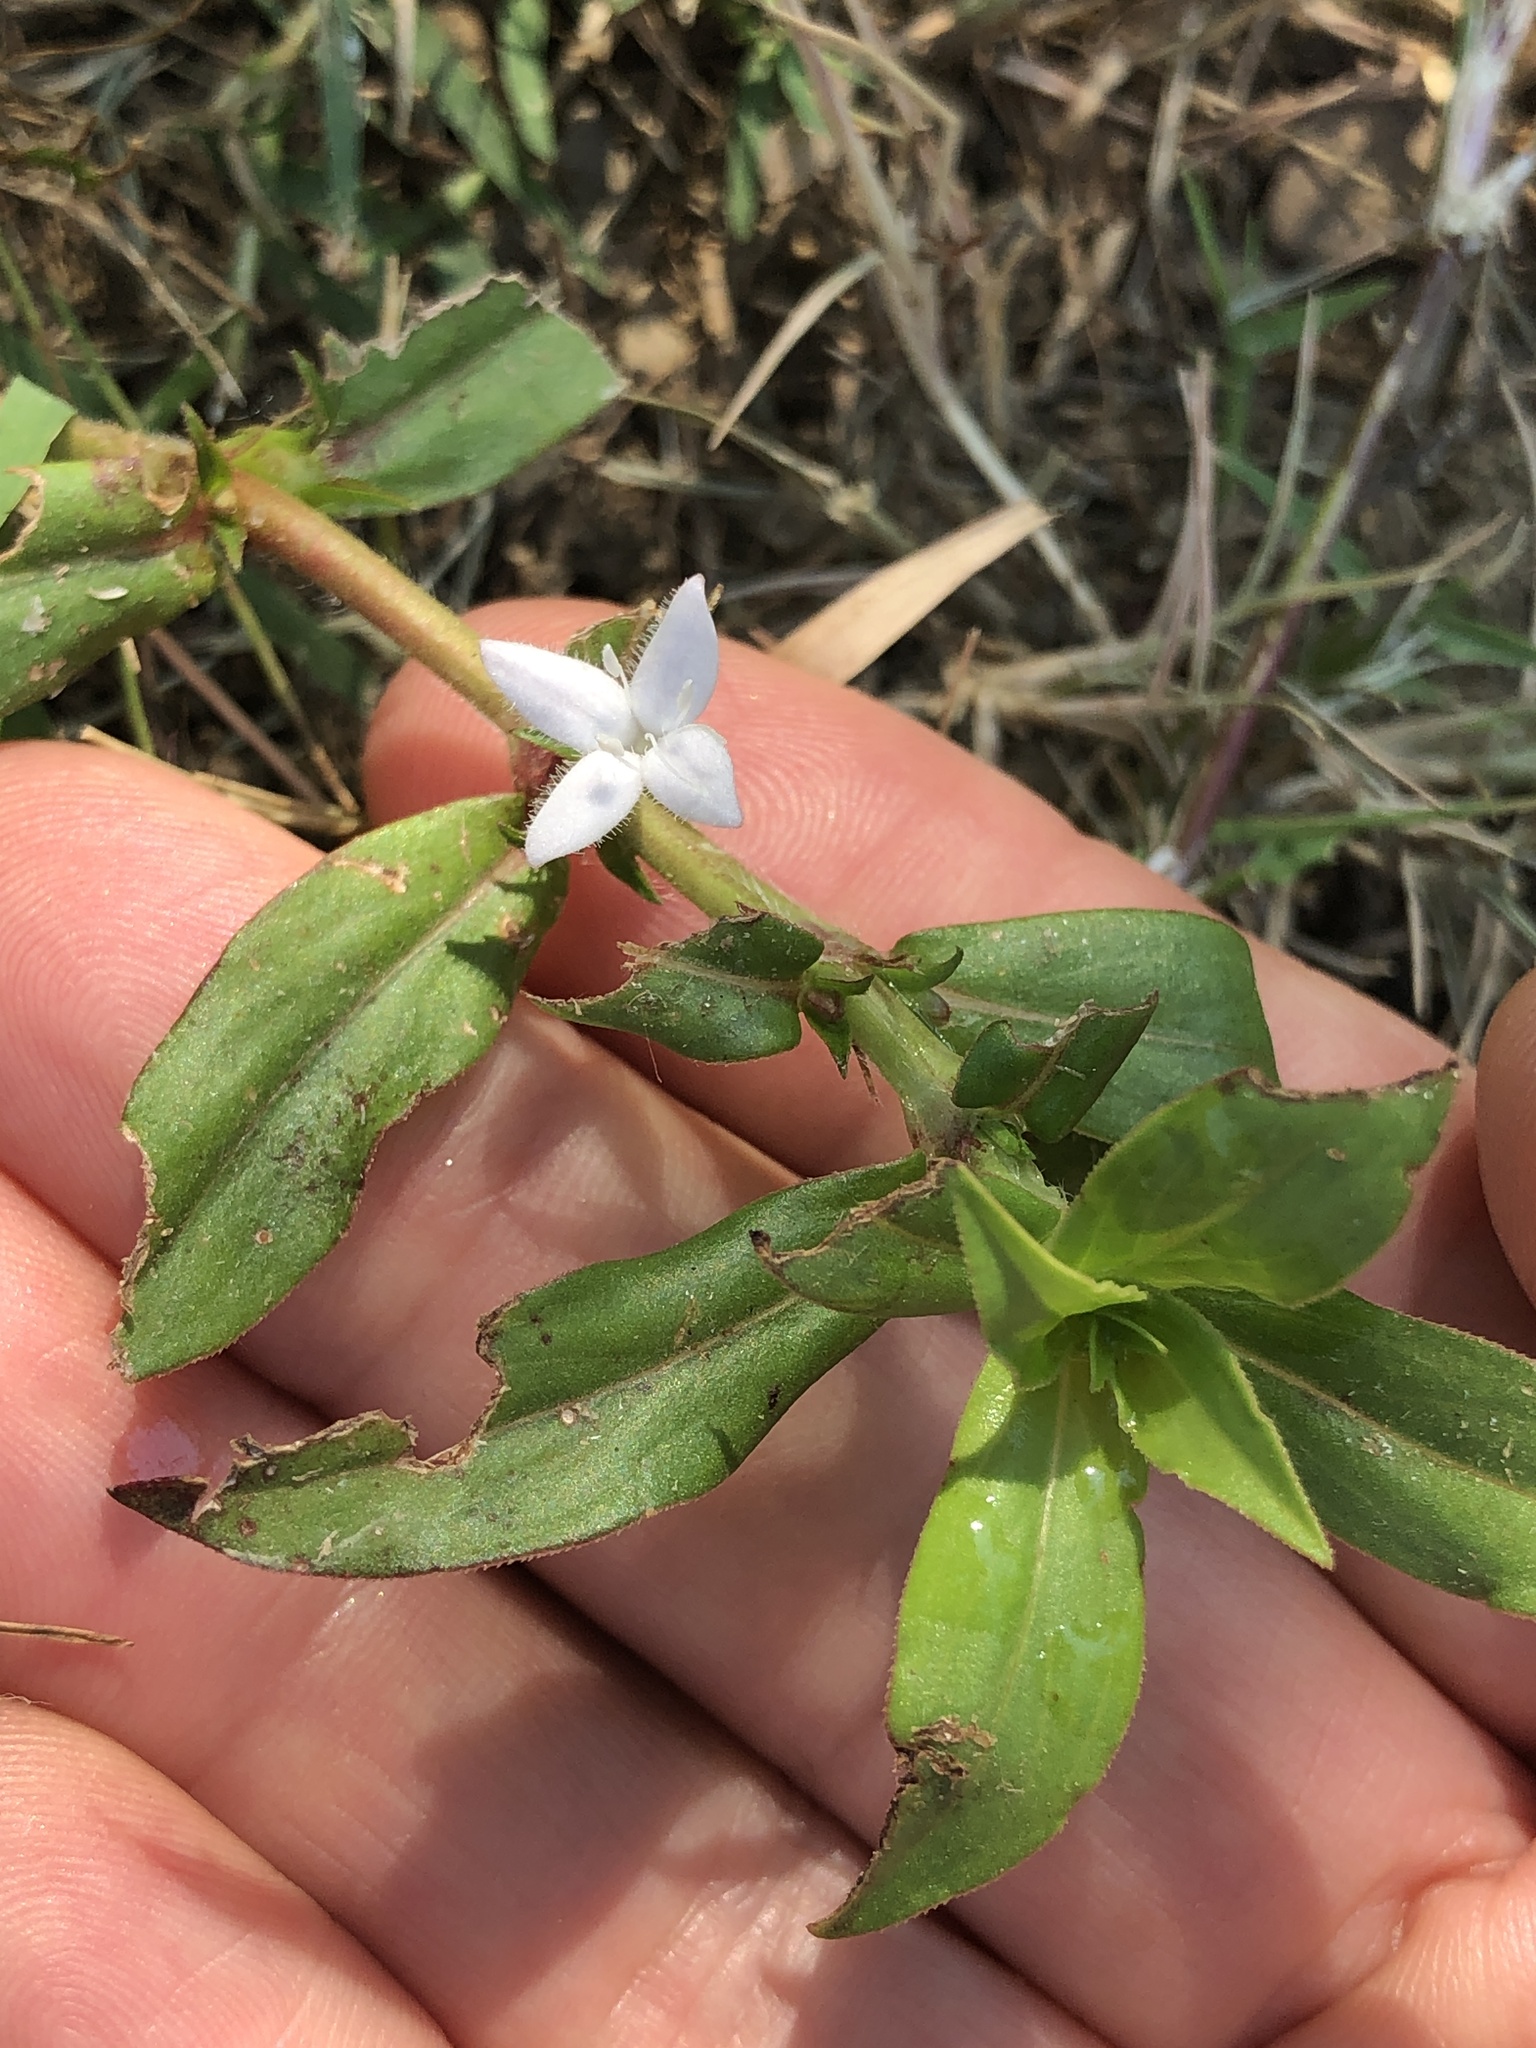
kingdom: Plantae
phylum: Tracheophyta
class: Magnoliopsida
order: Gentianales
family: Rubiaceae
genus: Diodia
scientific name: Diodia virginiana
